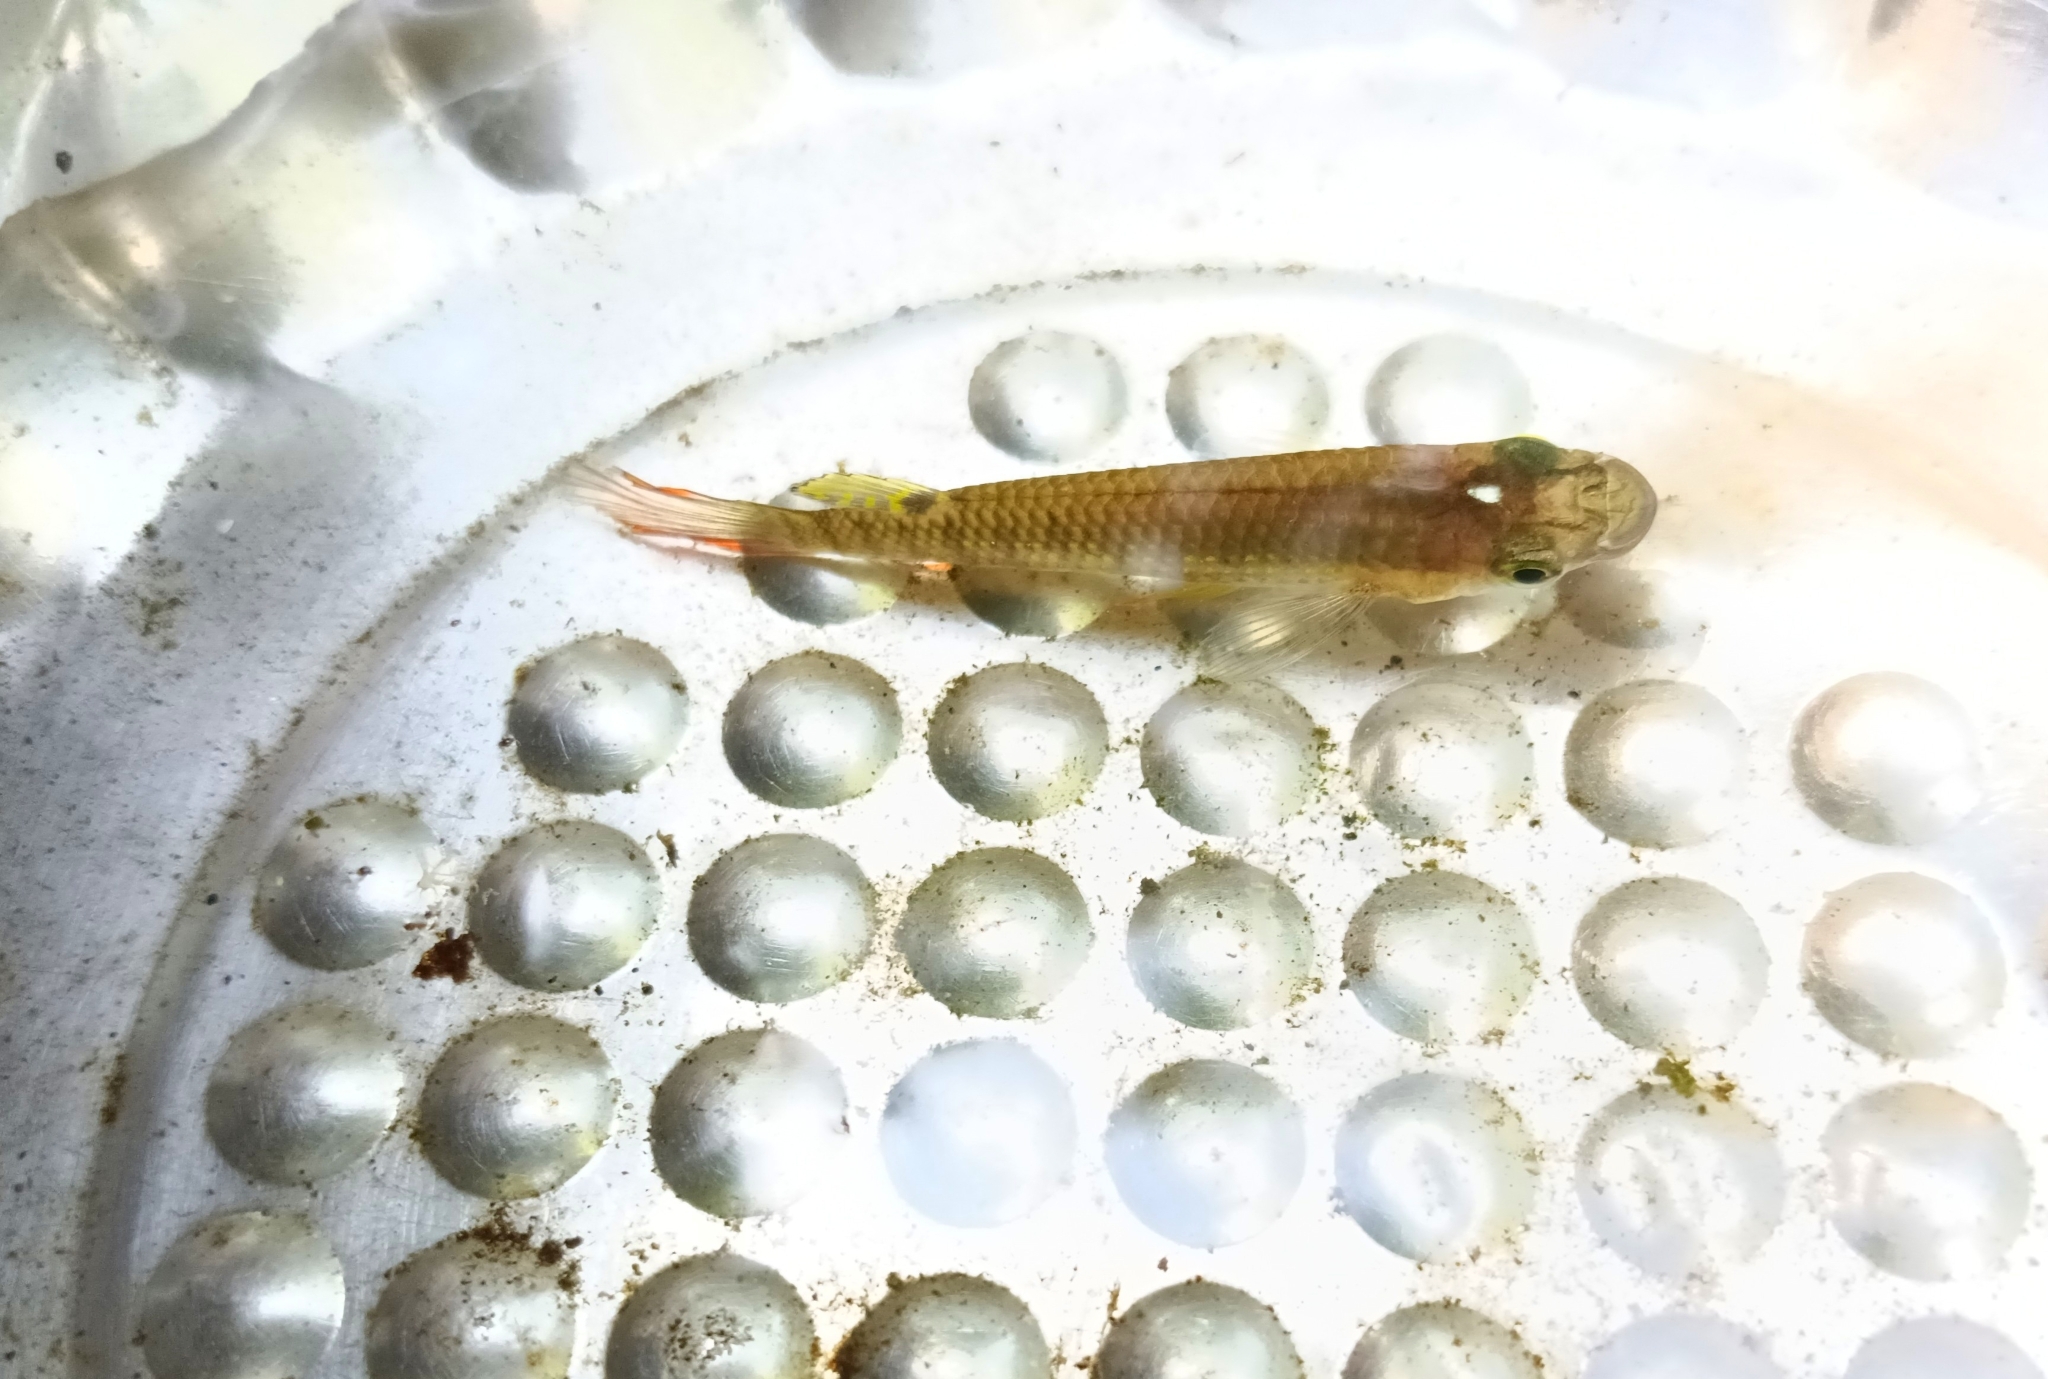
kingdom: Animalia
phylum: Chordata
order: Cyprinodontiformes
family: Aplocheilidae
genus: Aplocheilus
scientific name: Aplocheilus lineatus
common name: Striped panchax
